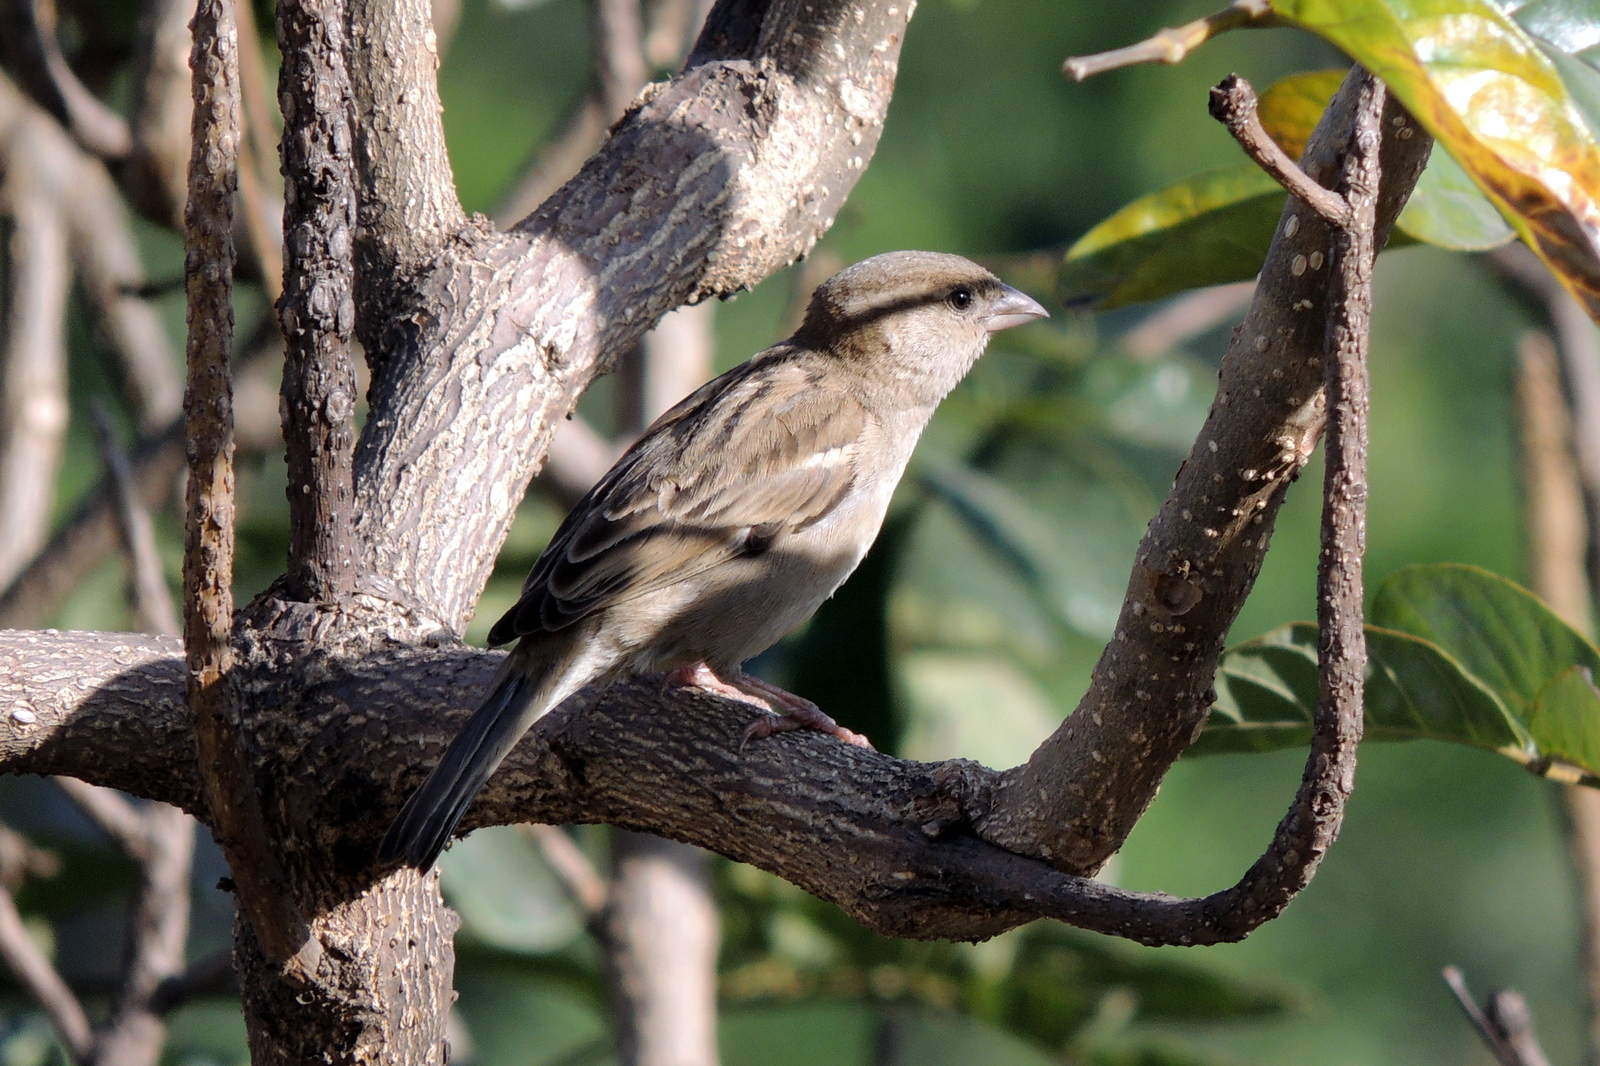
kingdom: Animalia
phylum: Chordata
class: Aves
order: Passeriformes
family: Passeridae
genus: Passer
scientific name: Passer domesticus
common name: House sparrow
